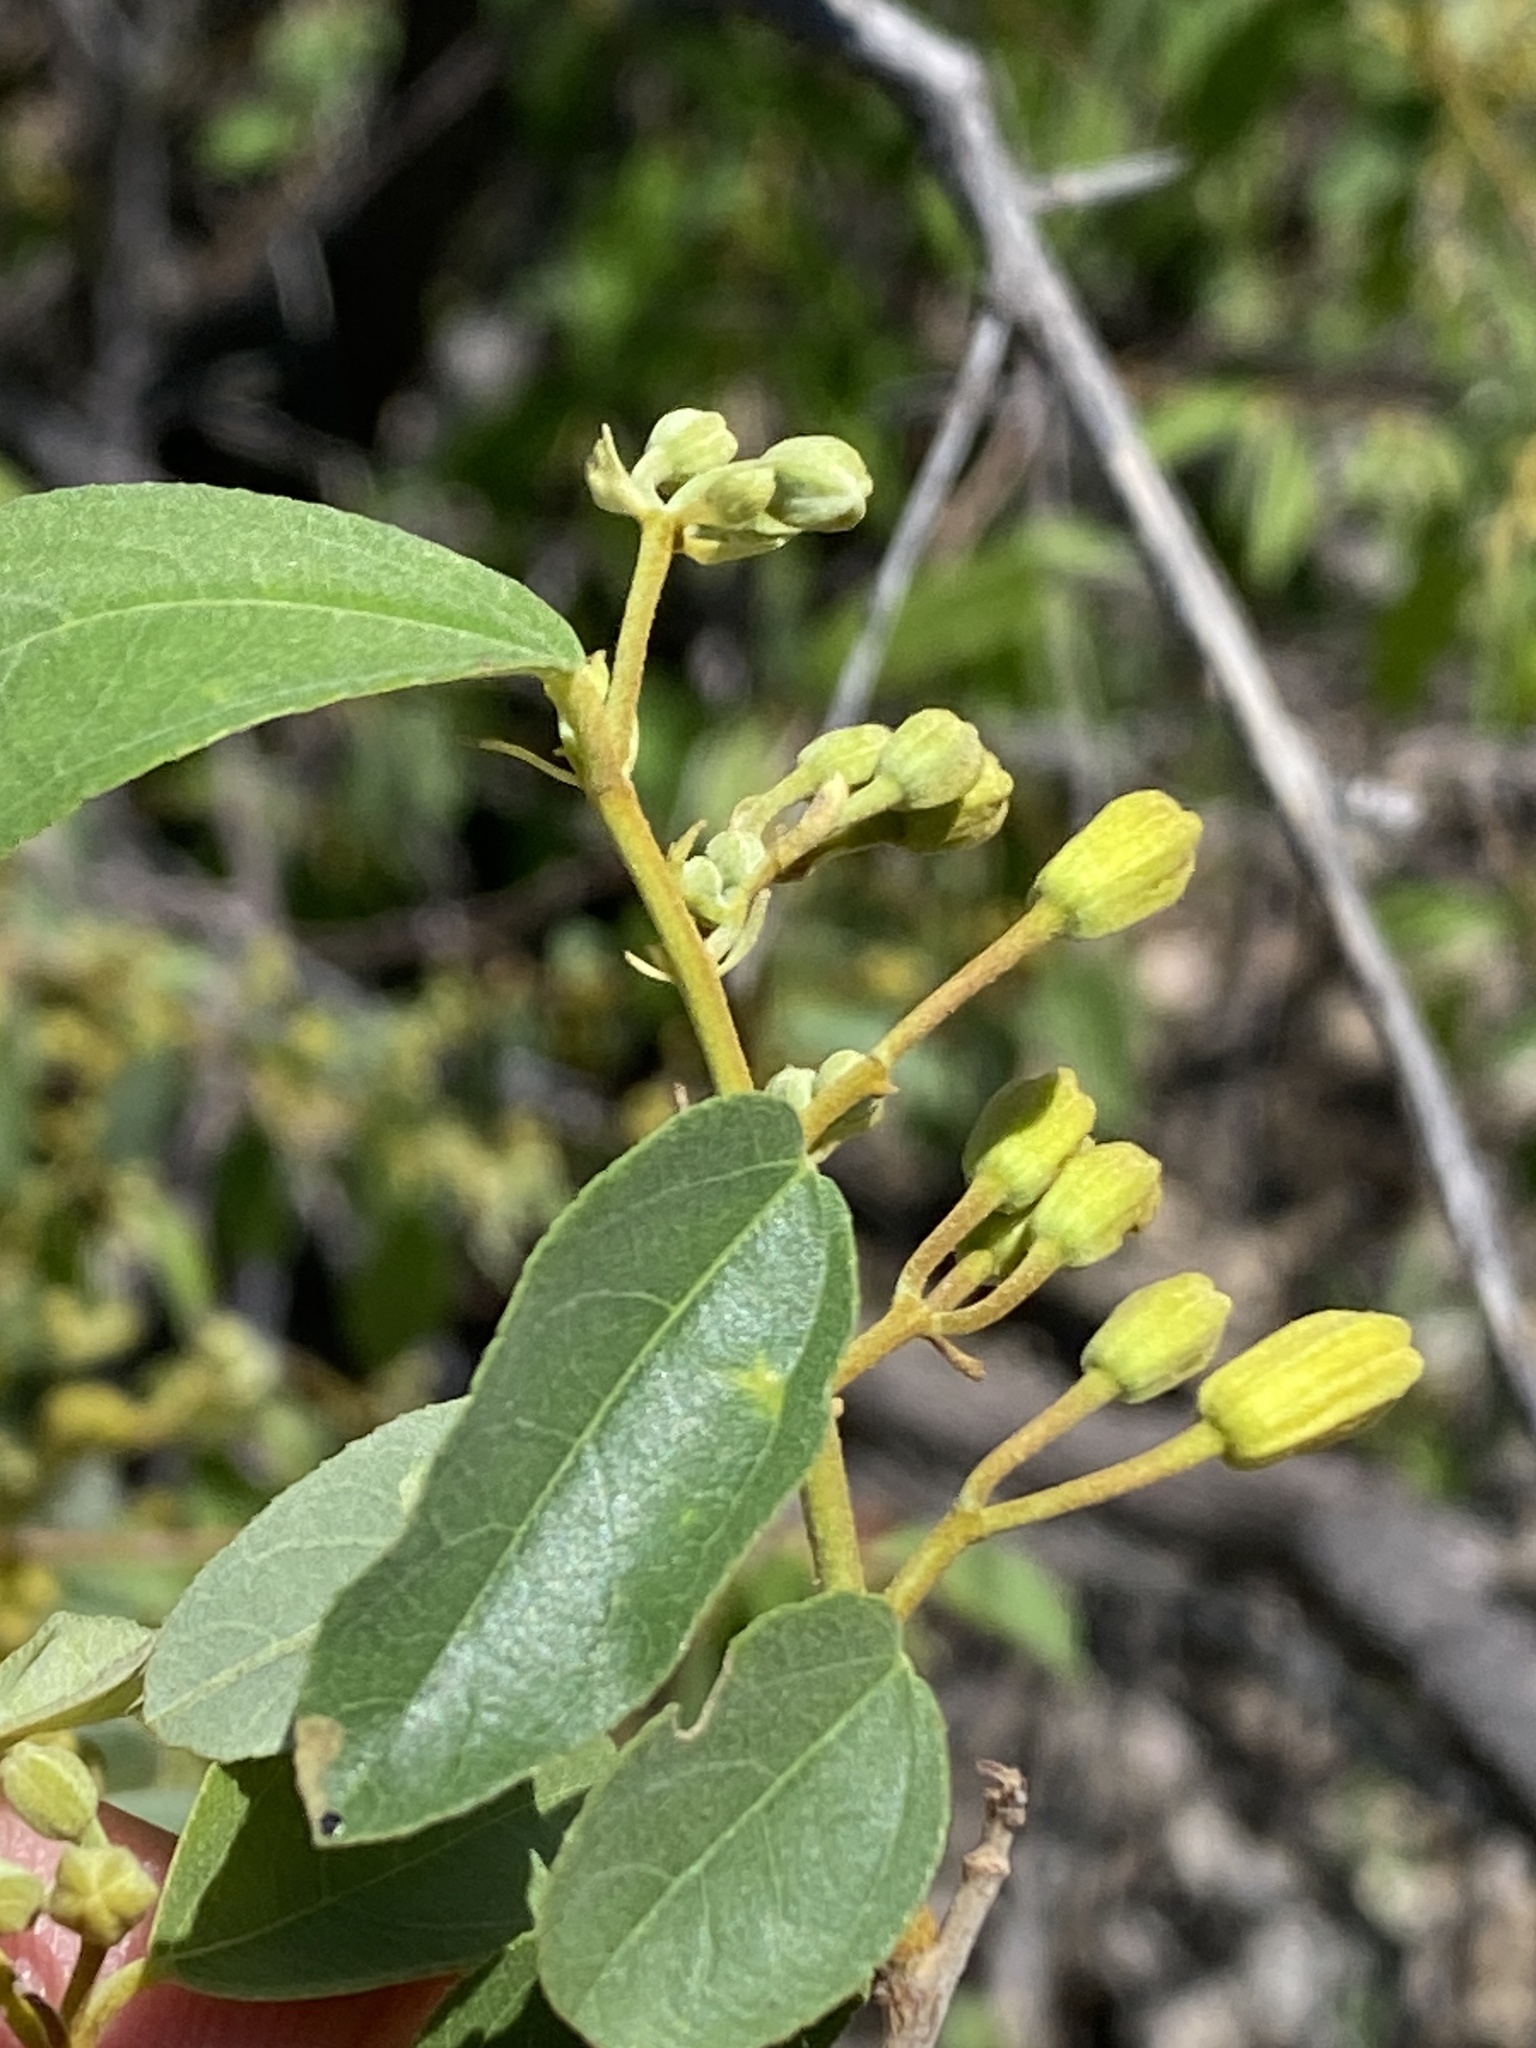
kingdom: Plantae
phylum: Tracheophyta
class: Magnoliopsida
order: Malvales
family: Malvaceae
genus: Grewia
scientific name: Grewia bicolor
